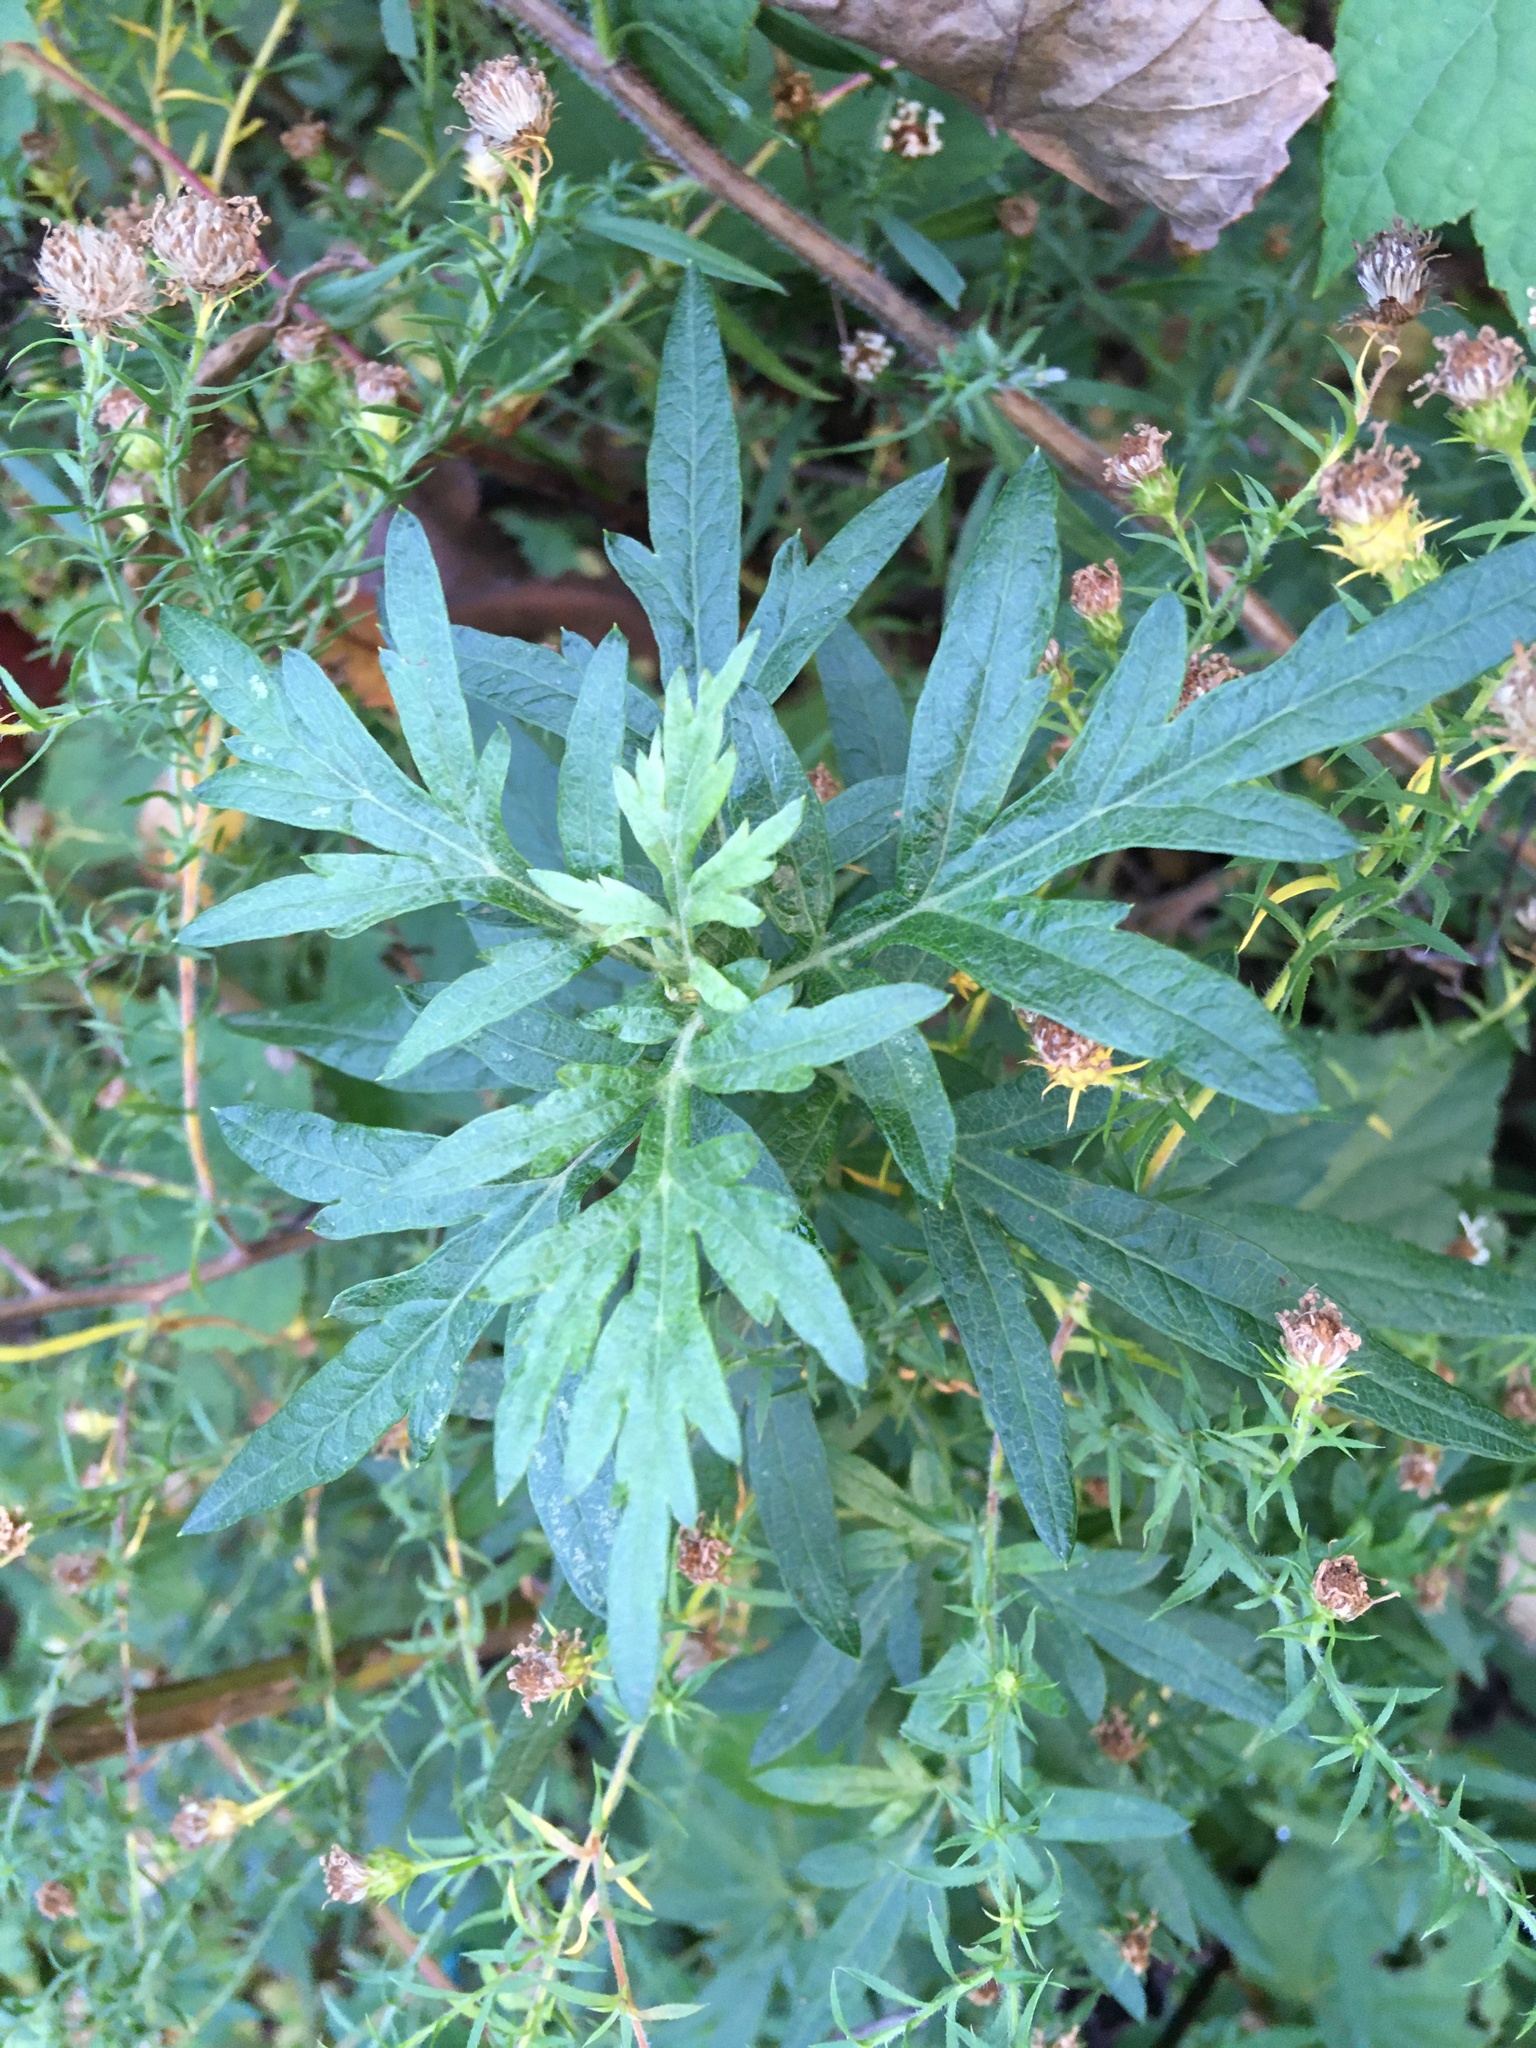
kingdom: Plantae
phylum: Tracheophyta
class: Magnoliopsida
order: Asterales
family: Asteraceae
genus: Artemisia
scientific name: Artemisia vulgaris
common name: Mugwort
